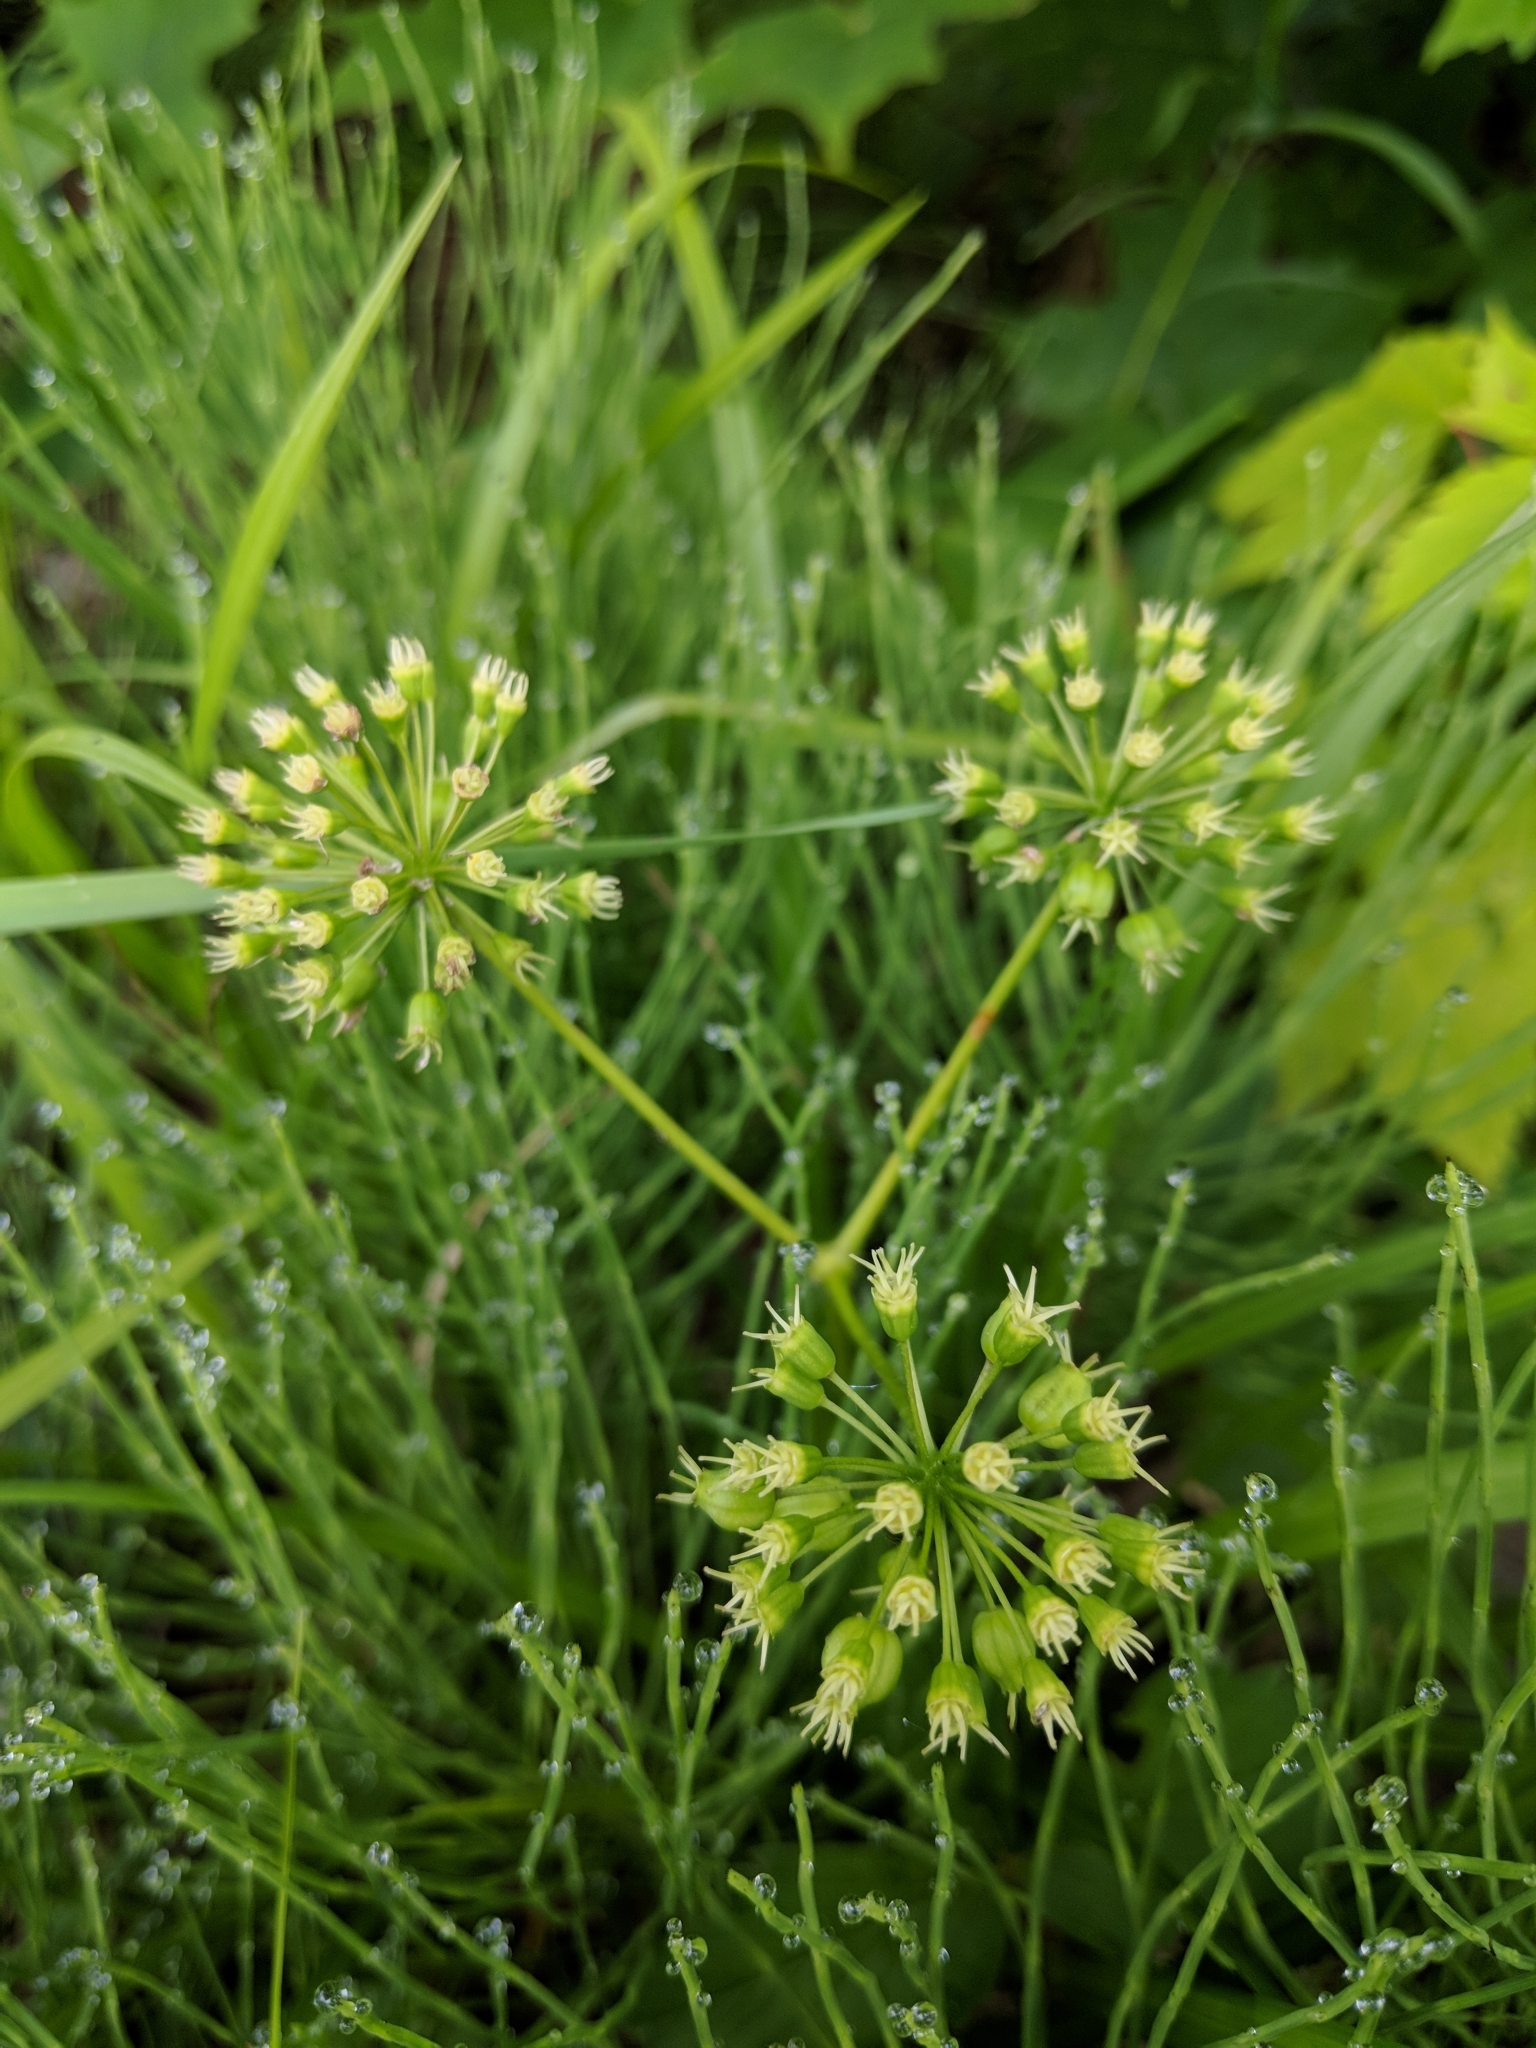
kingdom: Plantae
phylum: Tracheophyta
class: Magnoliopsida
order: Apiales
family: Araliaceae
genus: Aralia
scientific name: Aralia nudicaulis
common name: Wild sarsaparilla
